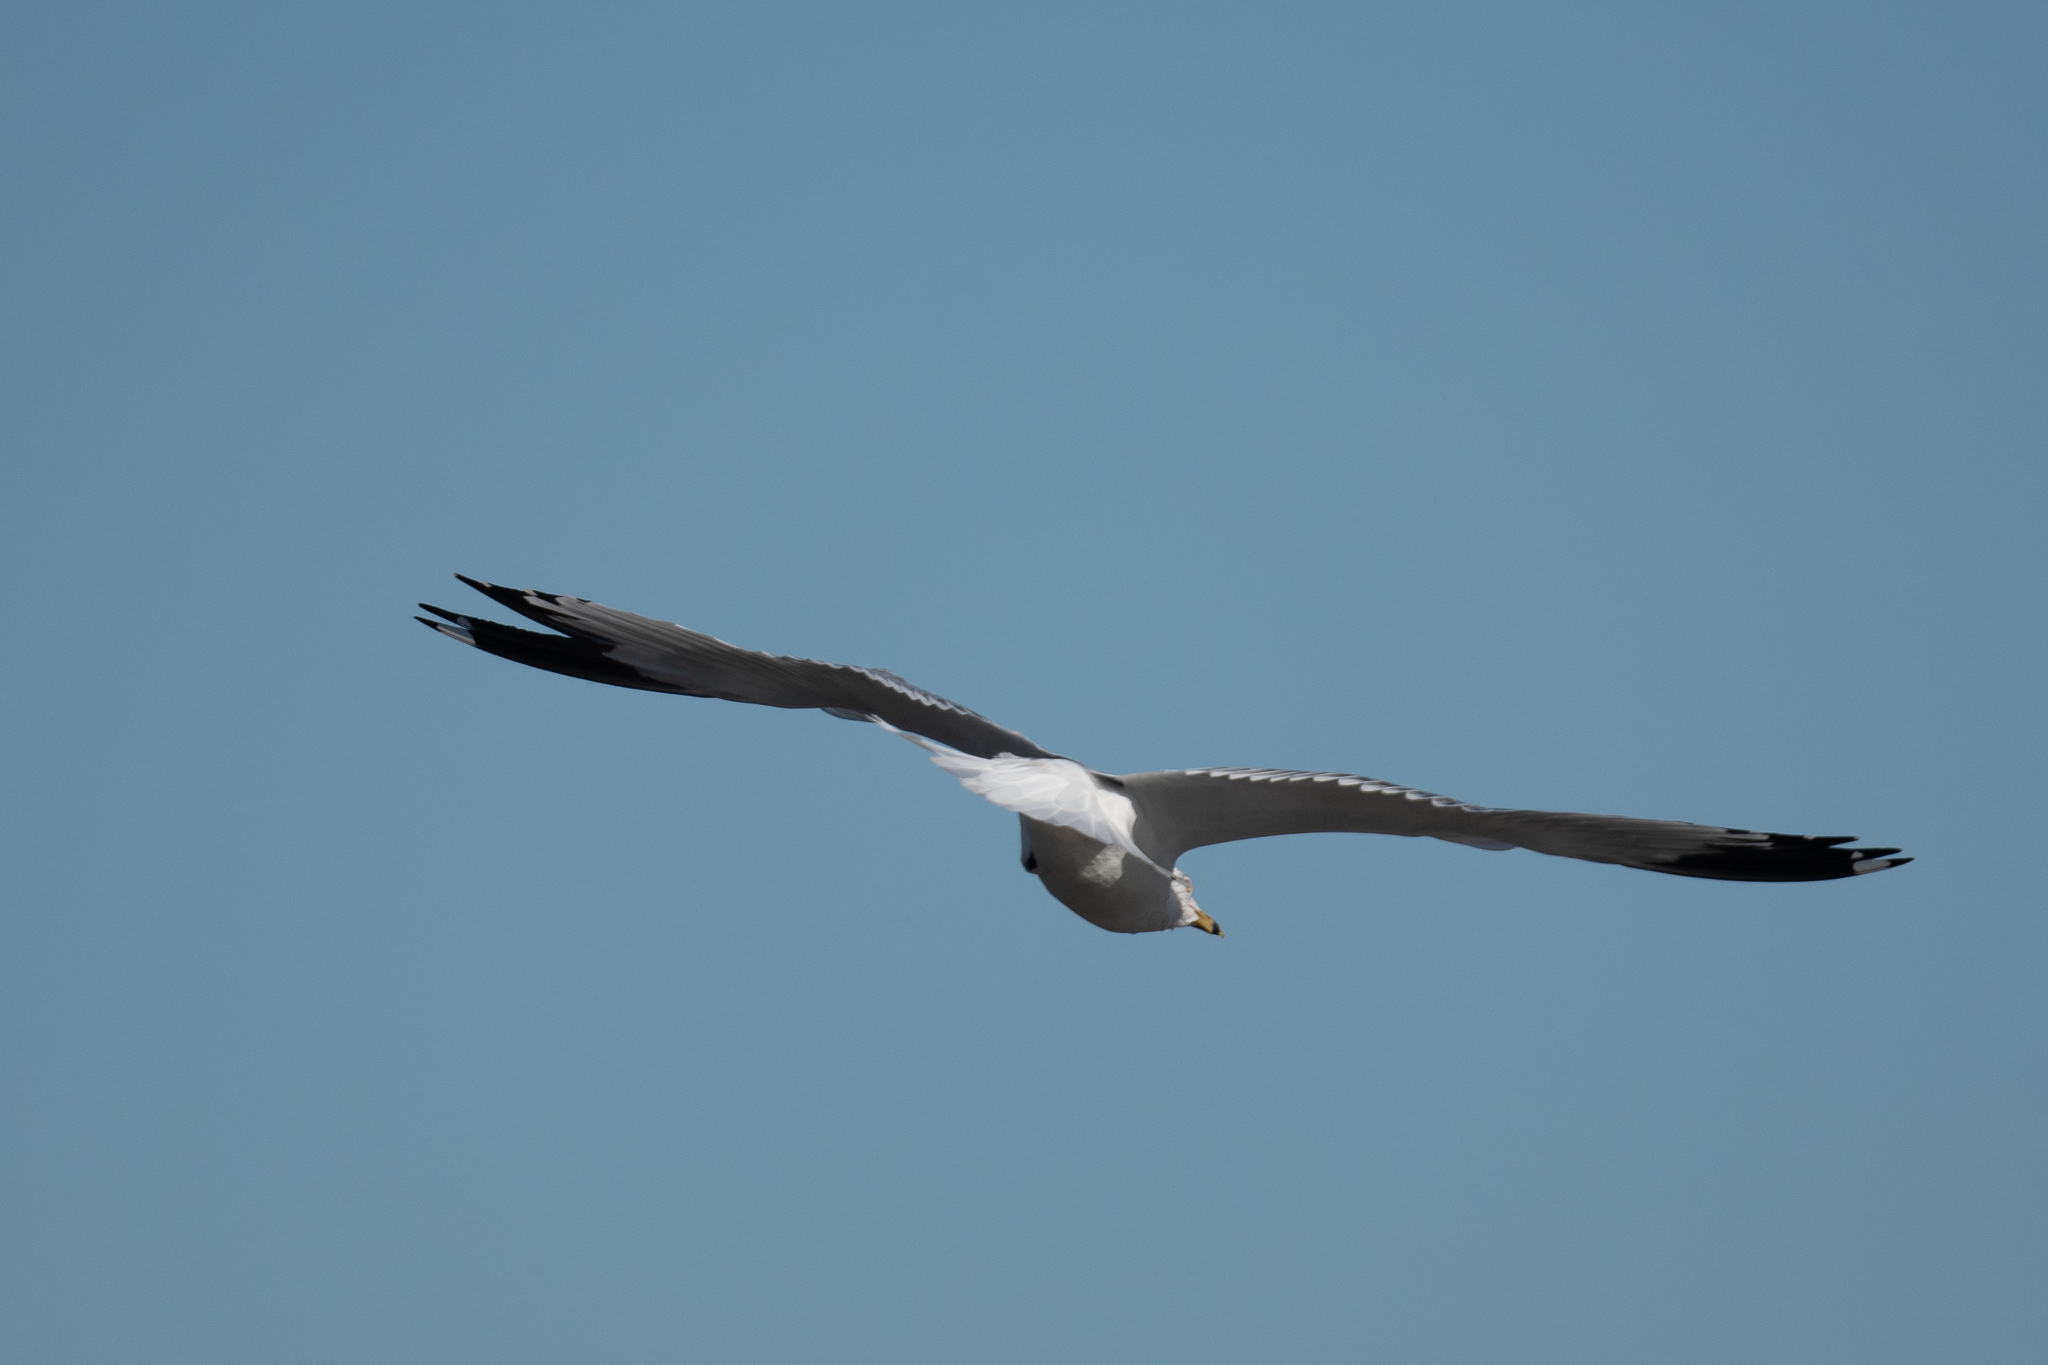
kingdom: Animalia
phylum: Chordata
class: Aves
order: Charadriiformes
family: Laridae
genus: Larus
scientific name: Larus delawarensis
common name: Ring-billed gull
